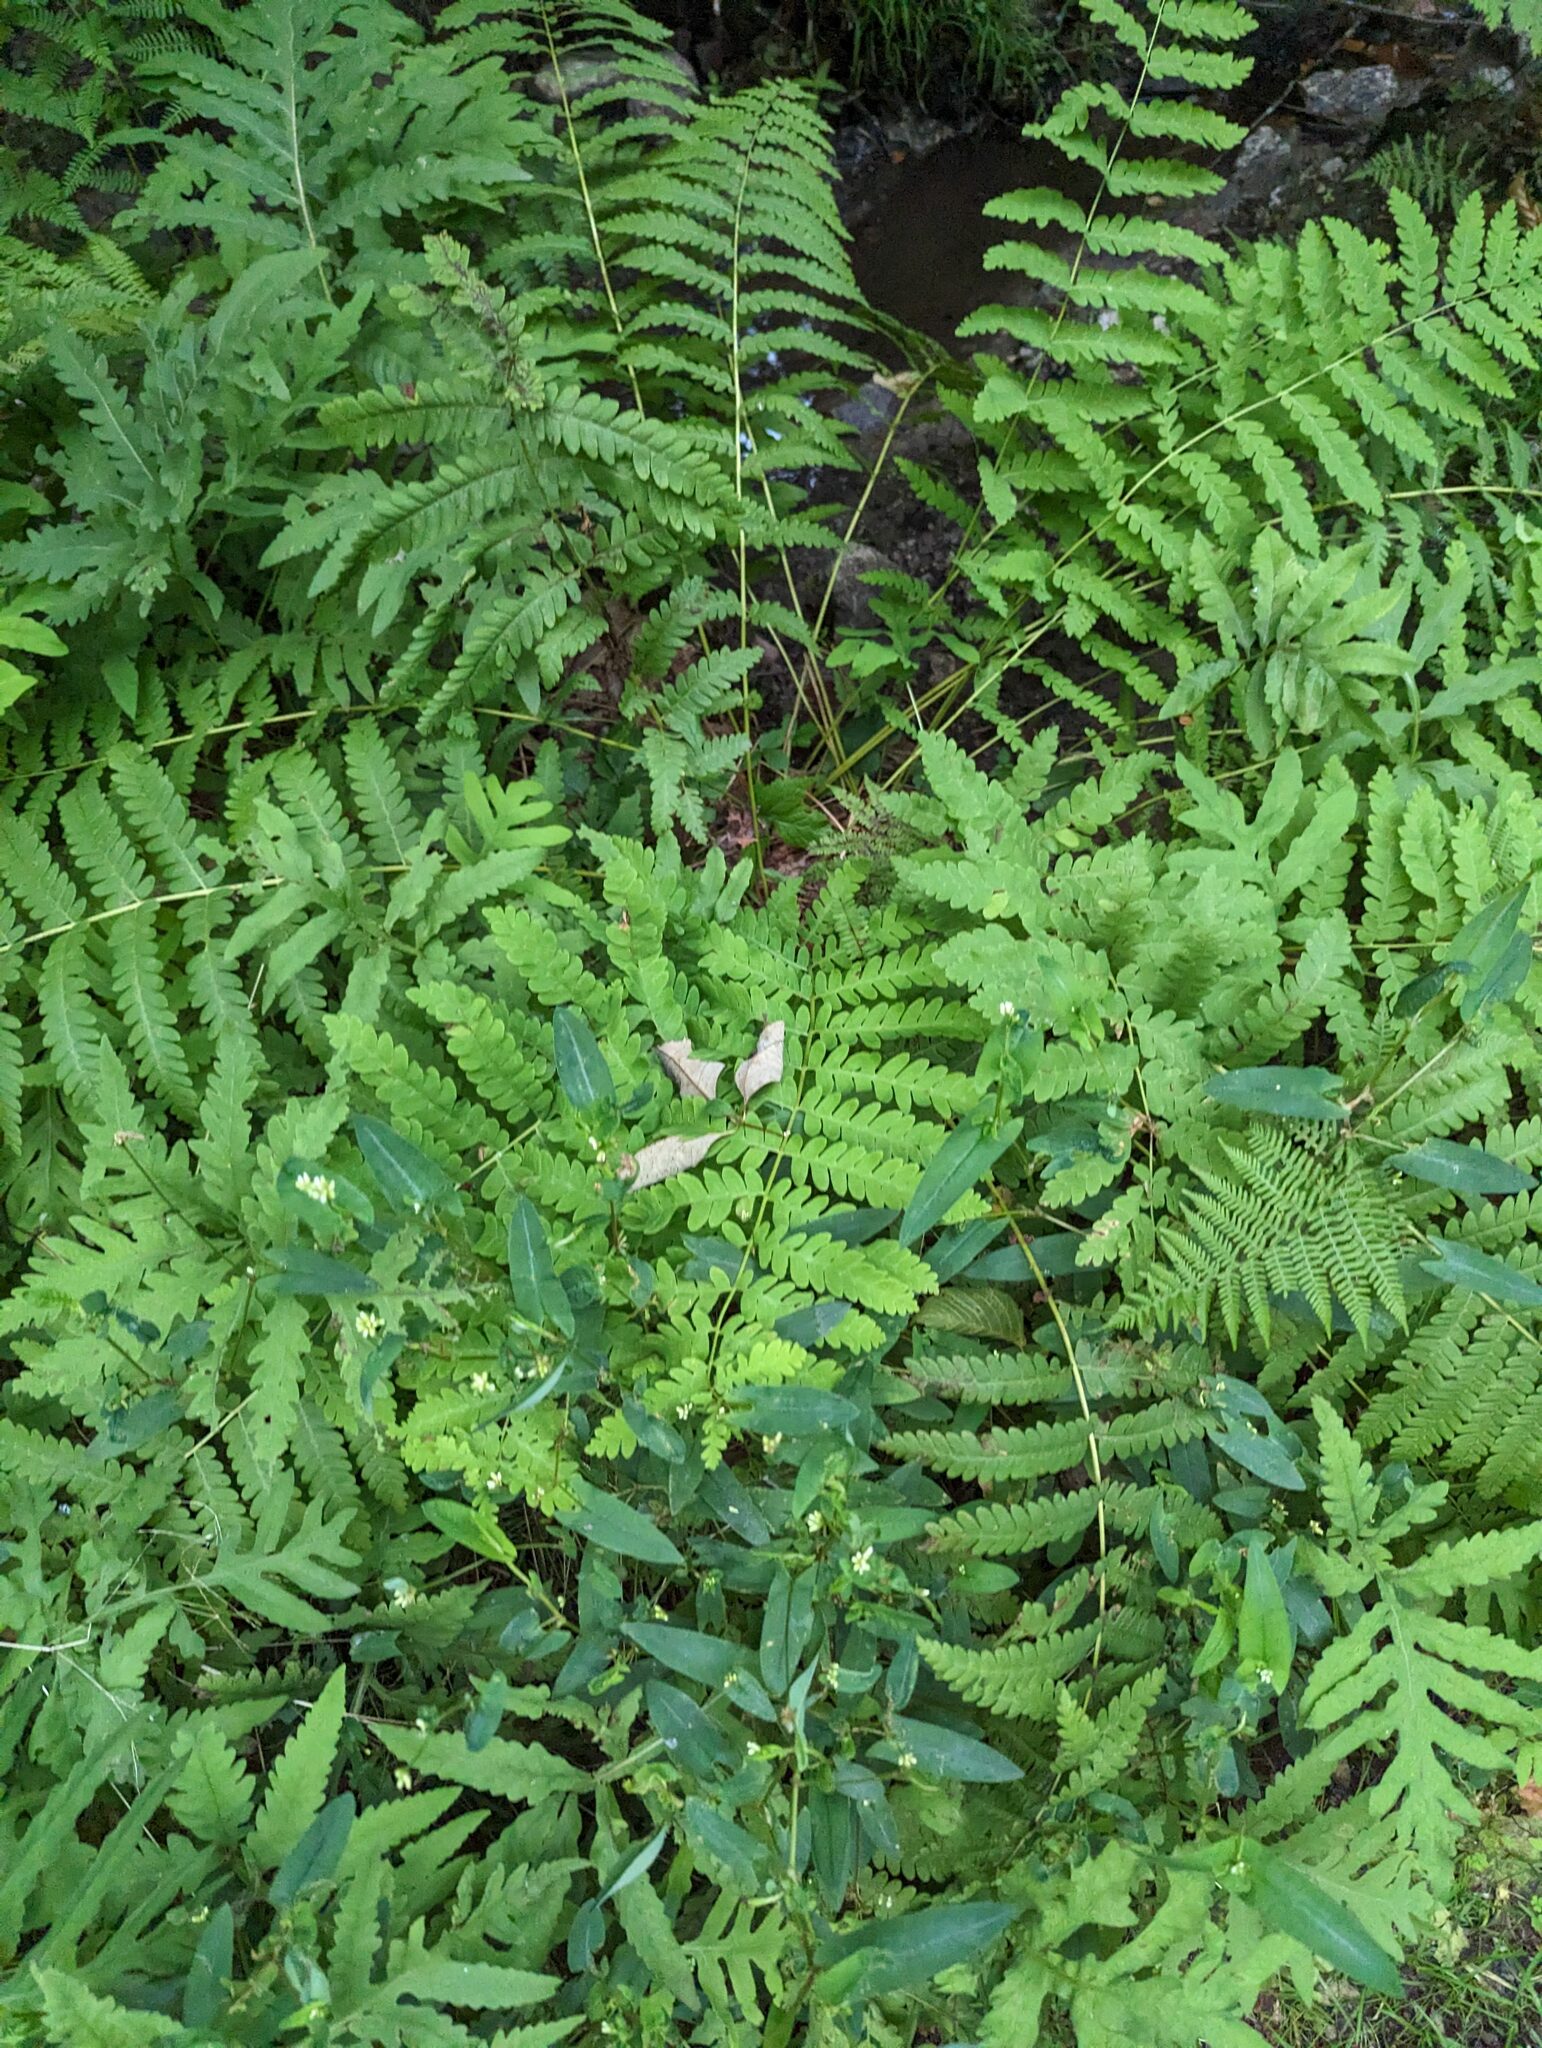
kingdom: Plantae
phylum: Tracheophyta
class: Polypodiopsida
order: Osmundales
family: Osmundaceae
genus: Claytosmunda
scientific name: Claytosmunda claytoniana
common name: Clayton's fern
